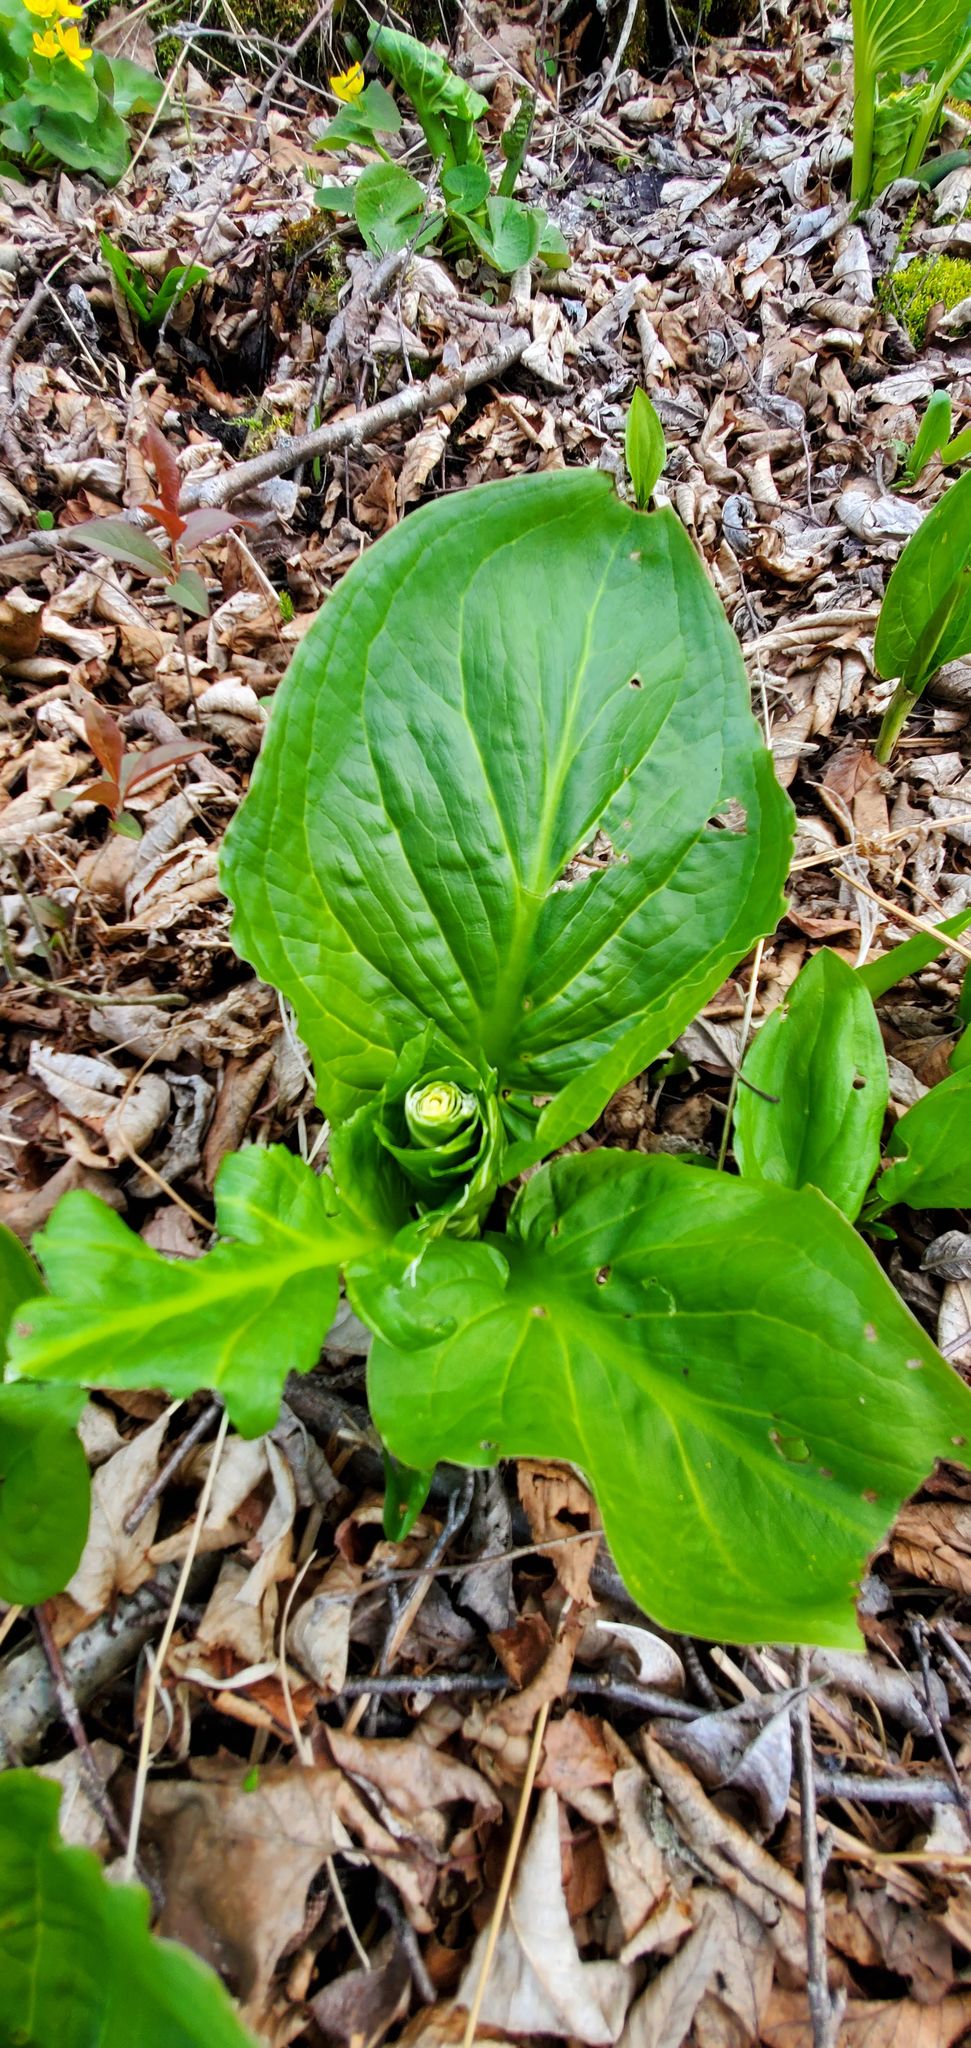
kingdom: Plantae
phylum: Tracheophyta
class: Liliopsida
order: Alismatales
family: Araceae
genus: Symplocarpus
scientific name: Symplocarpus foetidus
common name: Eastern skunk cabbage
